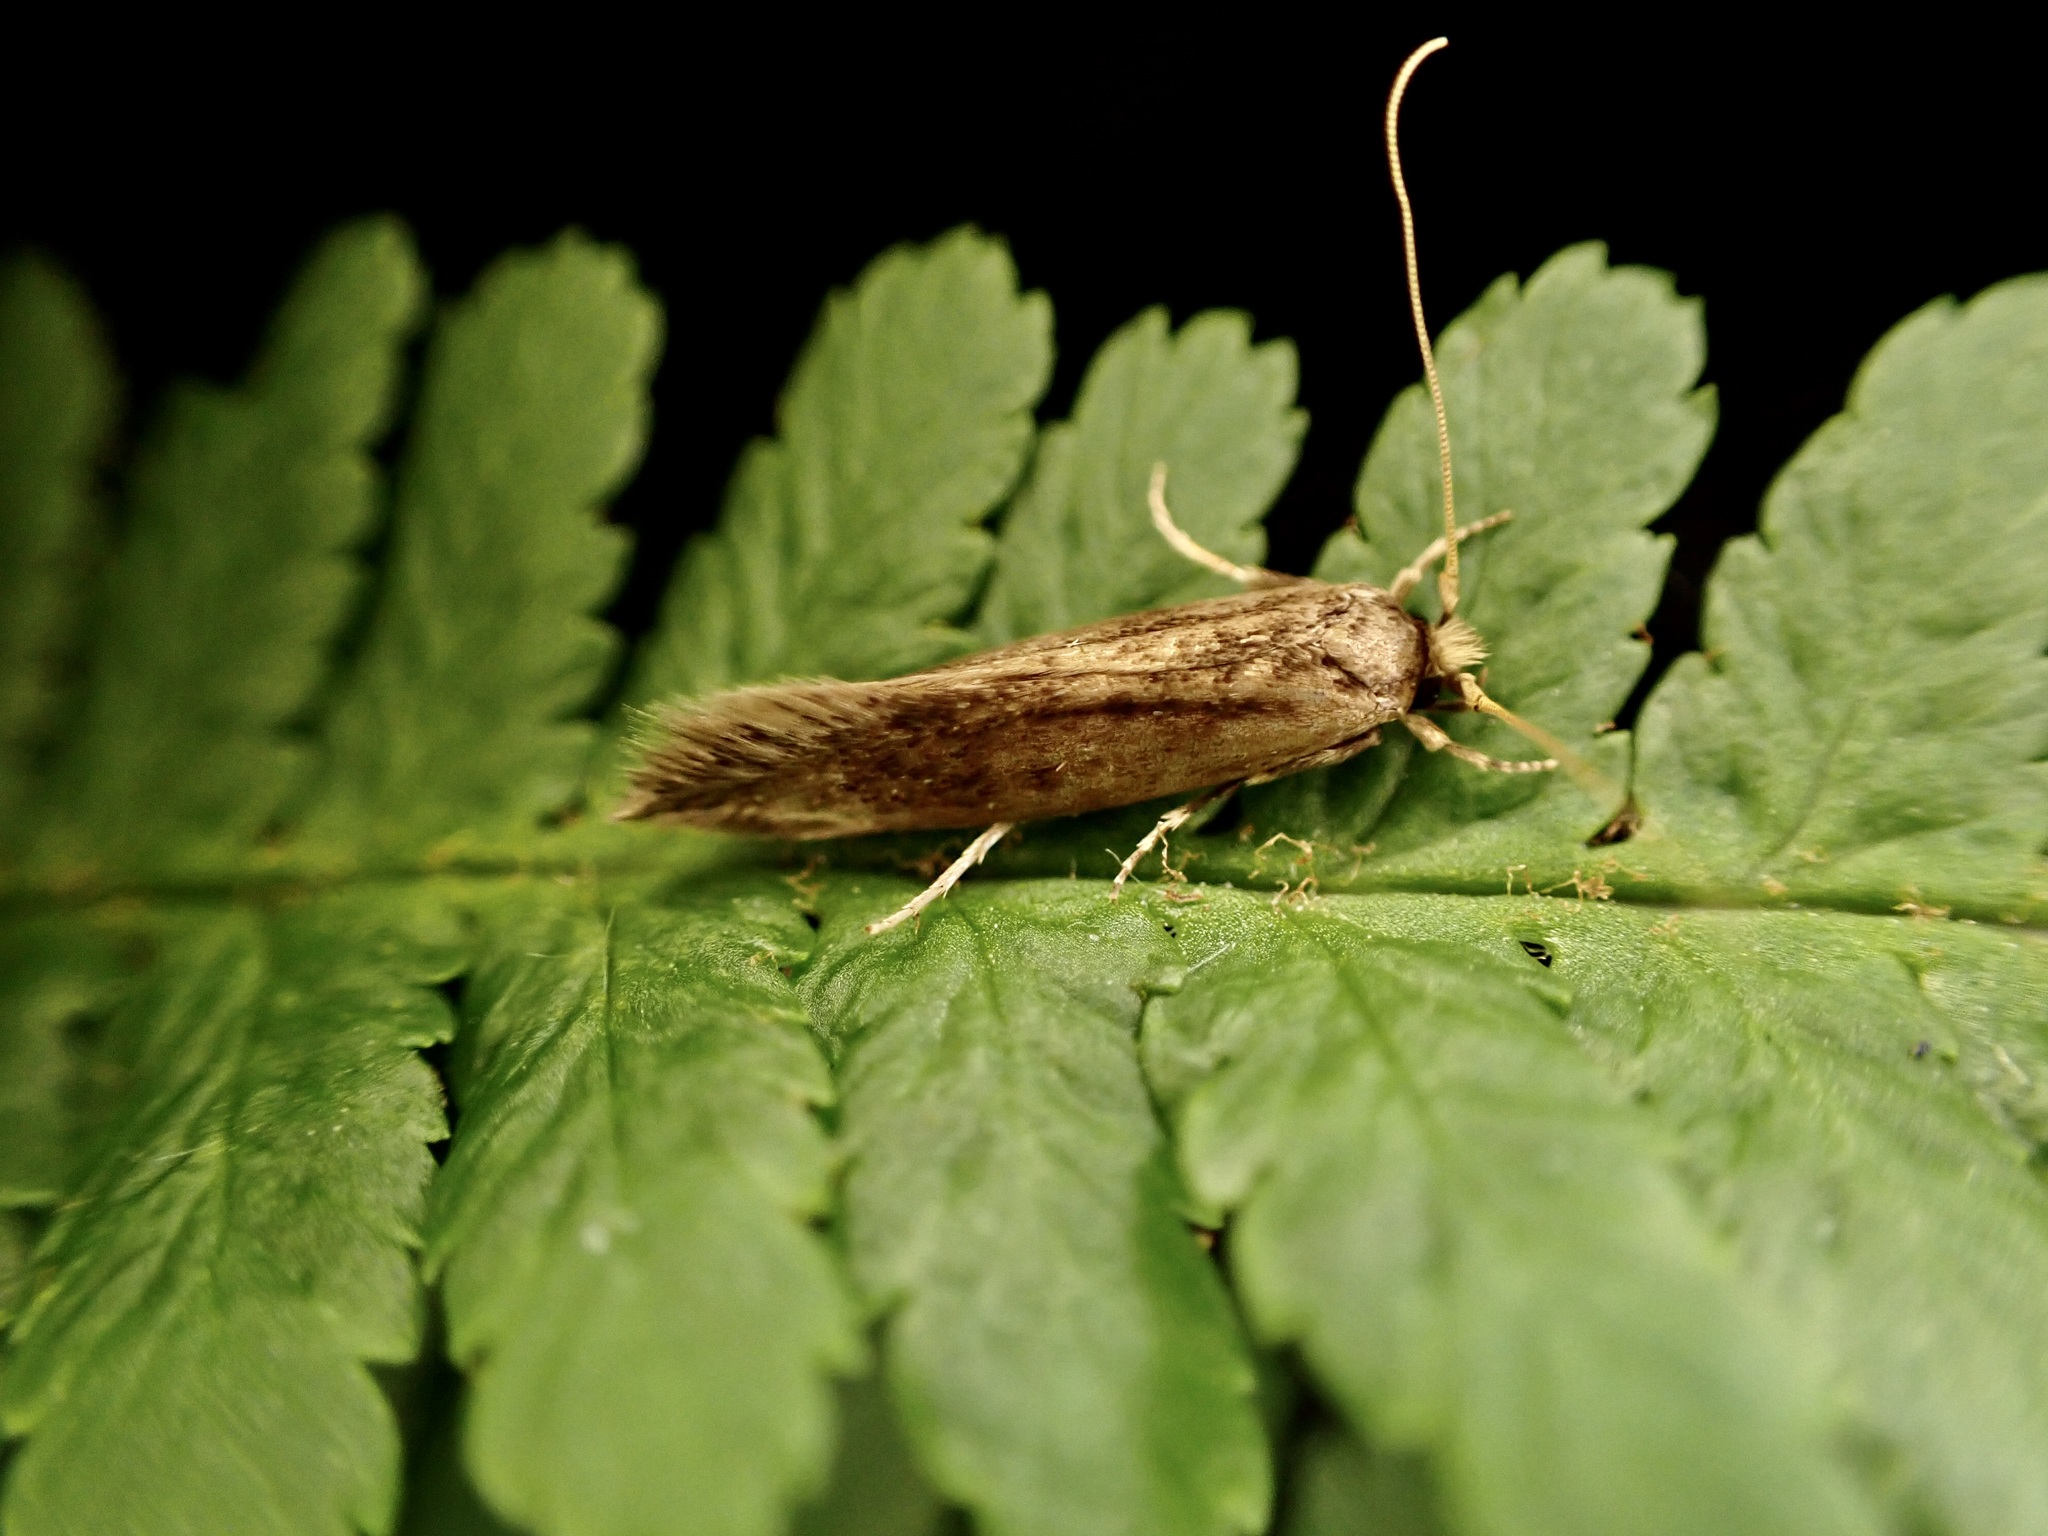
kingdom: Animalia
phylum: Arthropoda
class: Insecta
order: Lepidoptera
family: Tineidae
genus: Opogona
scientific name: Opogona omoscopa
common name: Moth
